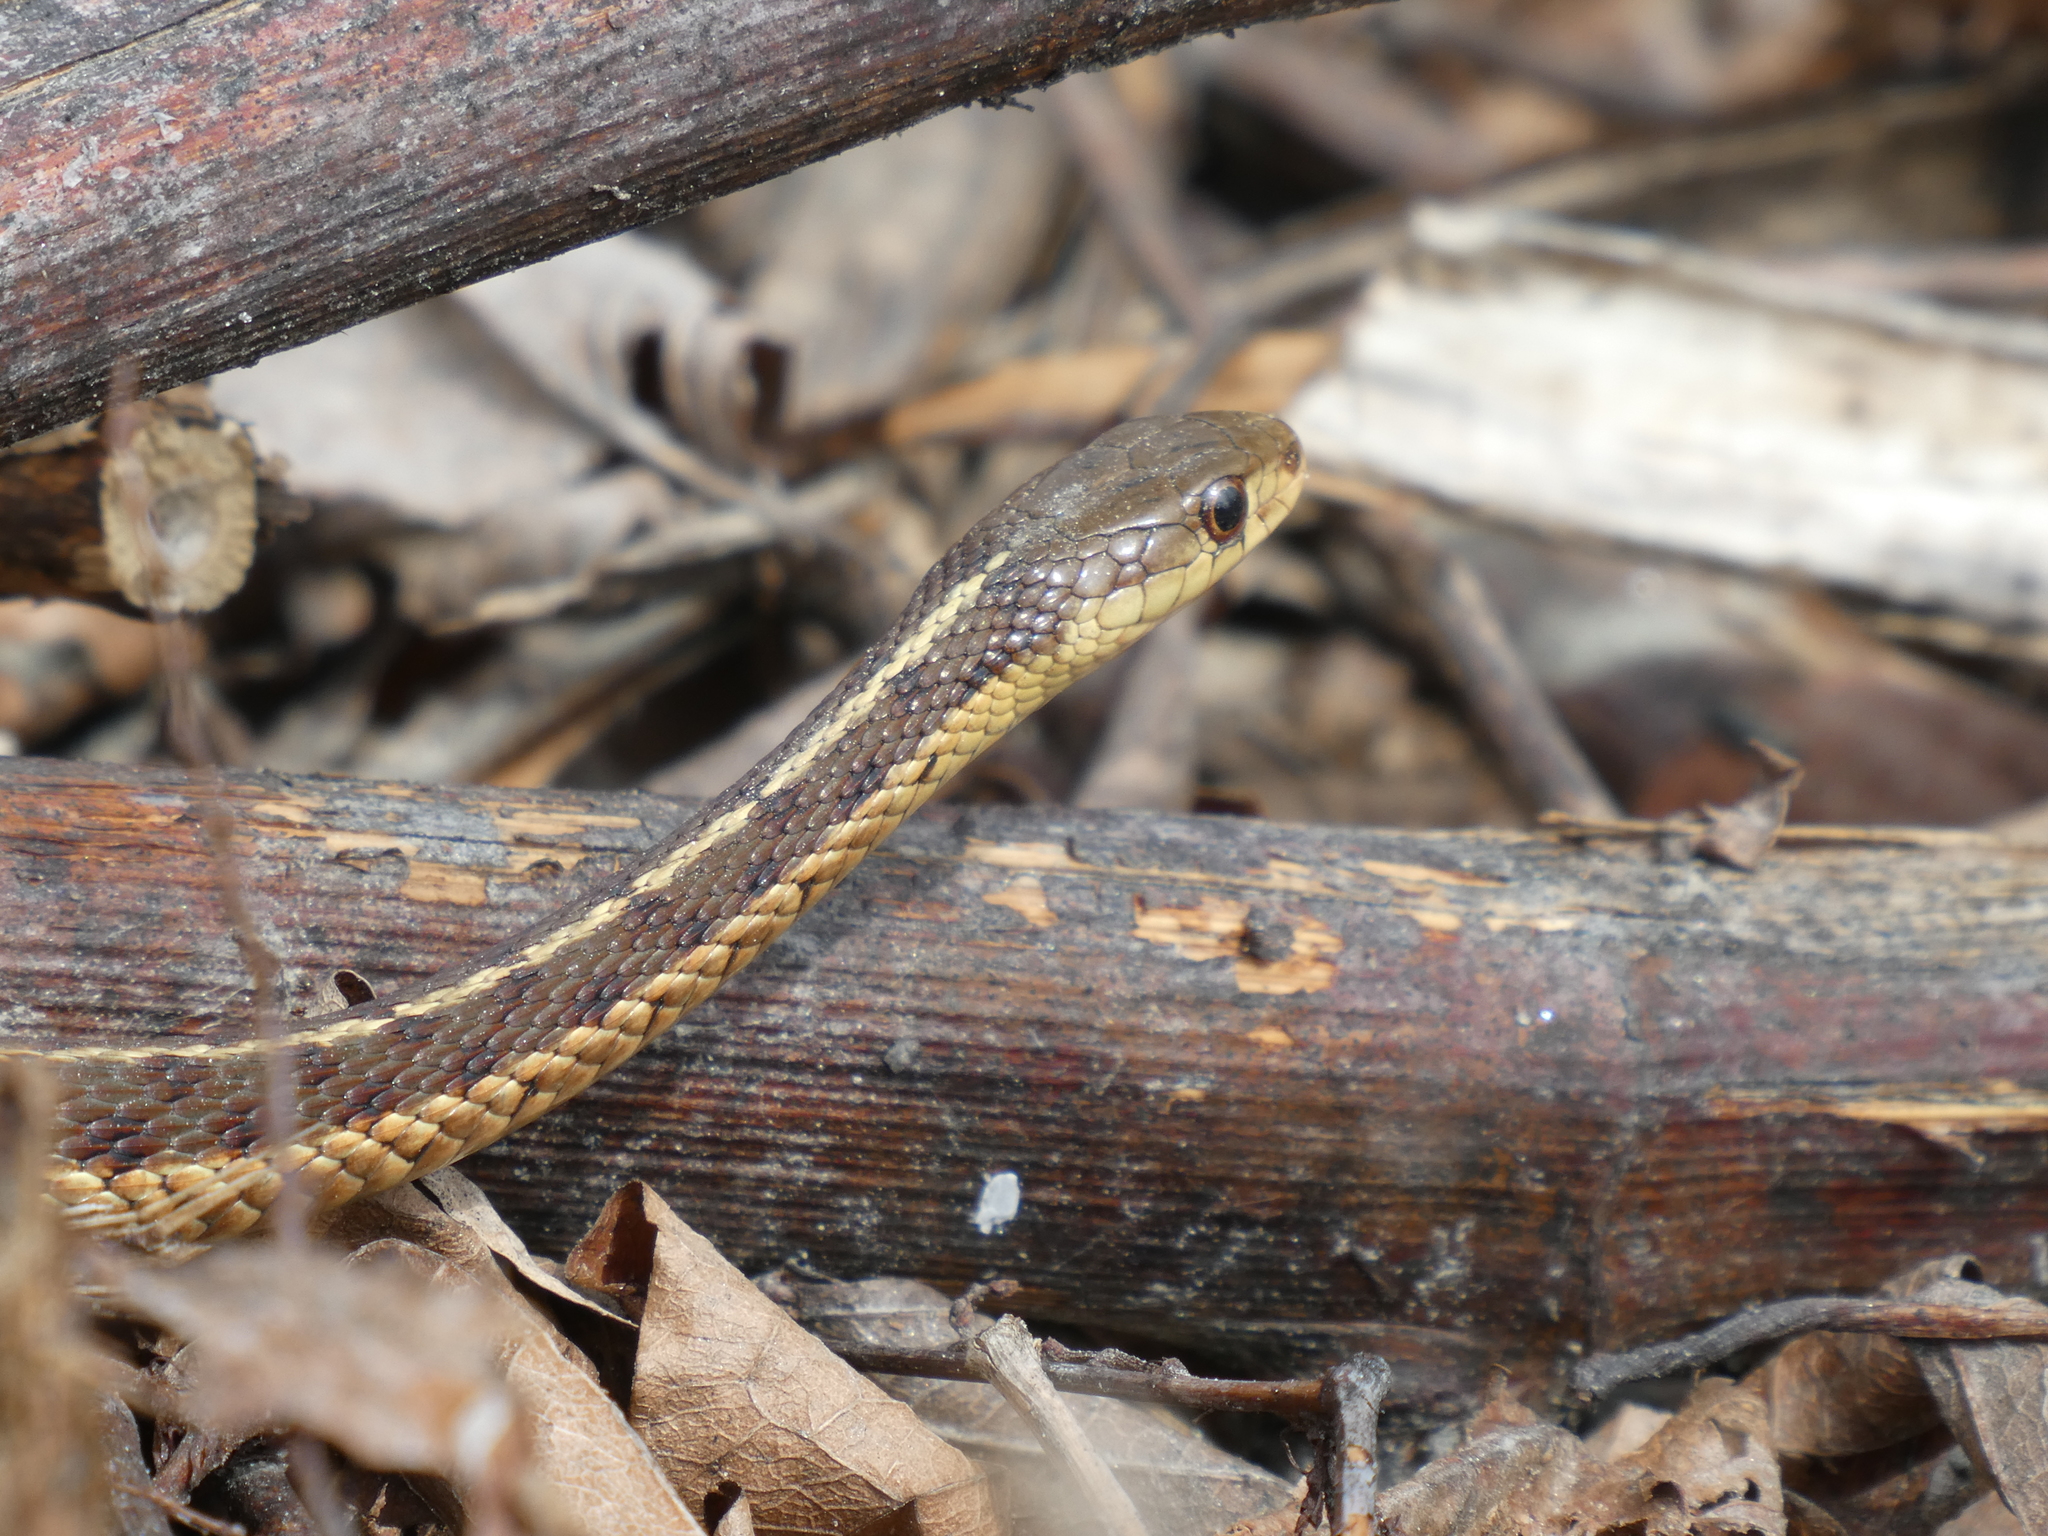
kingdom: Animalia
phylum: Chordata
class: Squamata
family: Colubridae
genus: Thamnophis
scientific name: Thamnophis sirtalis
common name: Common garter snake
